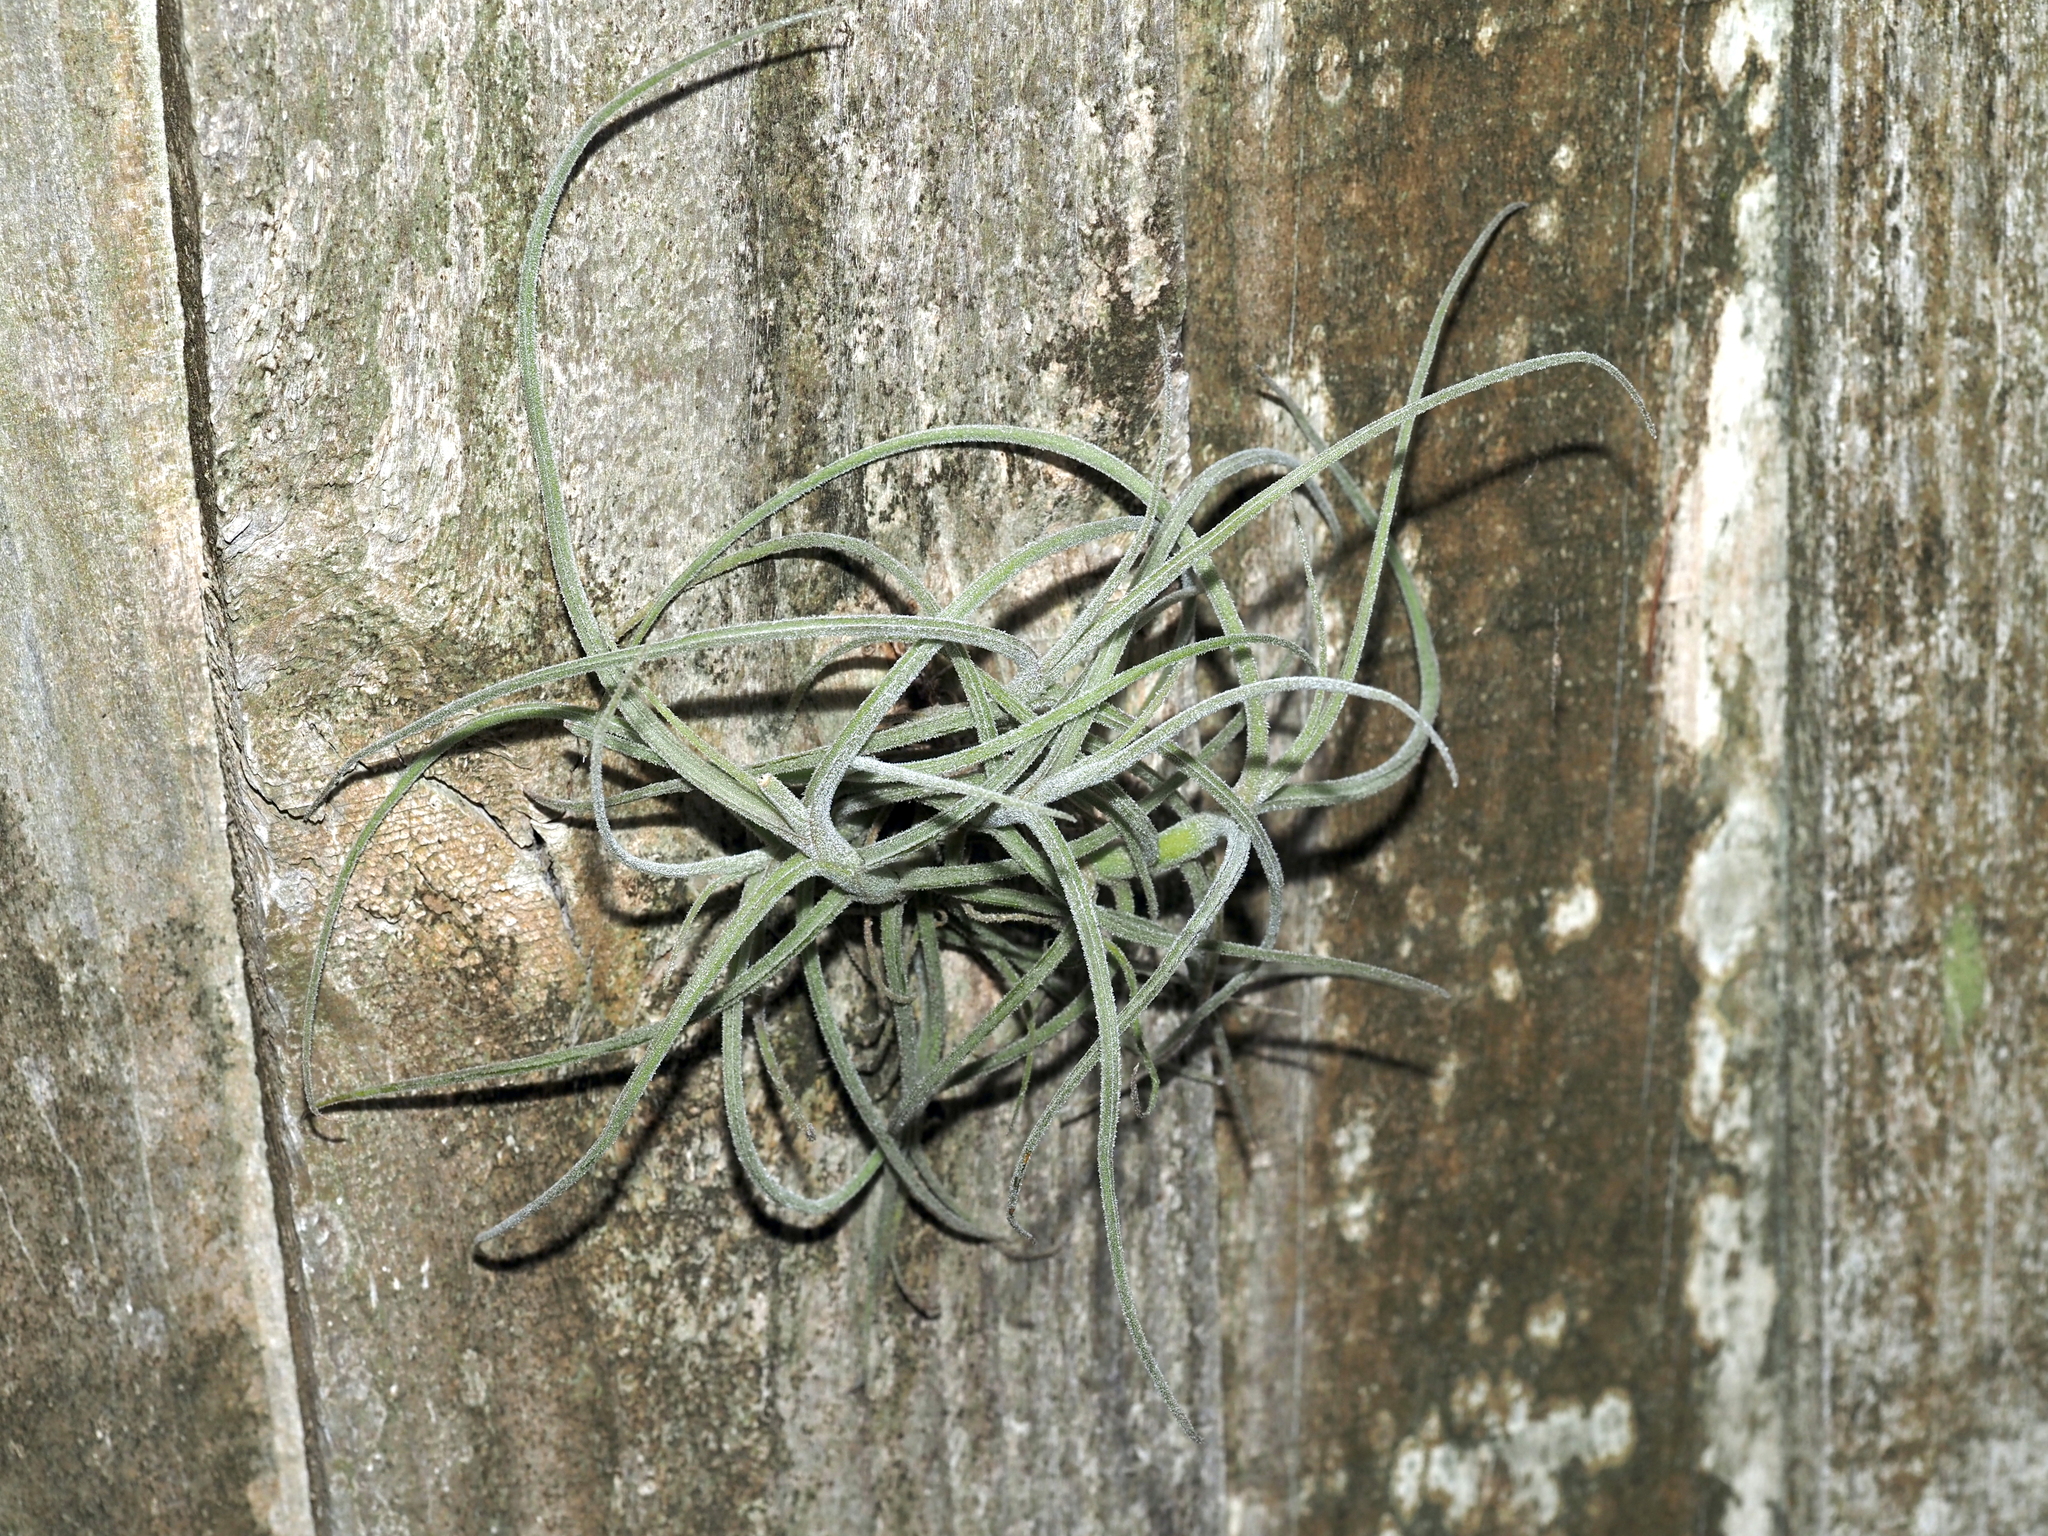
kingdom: Plantae
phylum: Tracheophyta
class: Liliopsida
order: Poales
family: Bromeliaceae
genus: Tillandsia
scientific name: Tillandsia recurvata
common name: Small ballmoss
